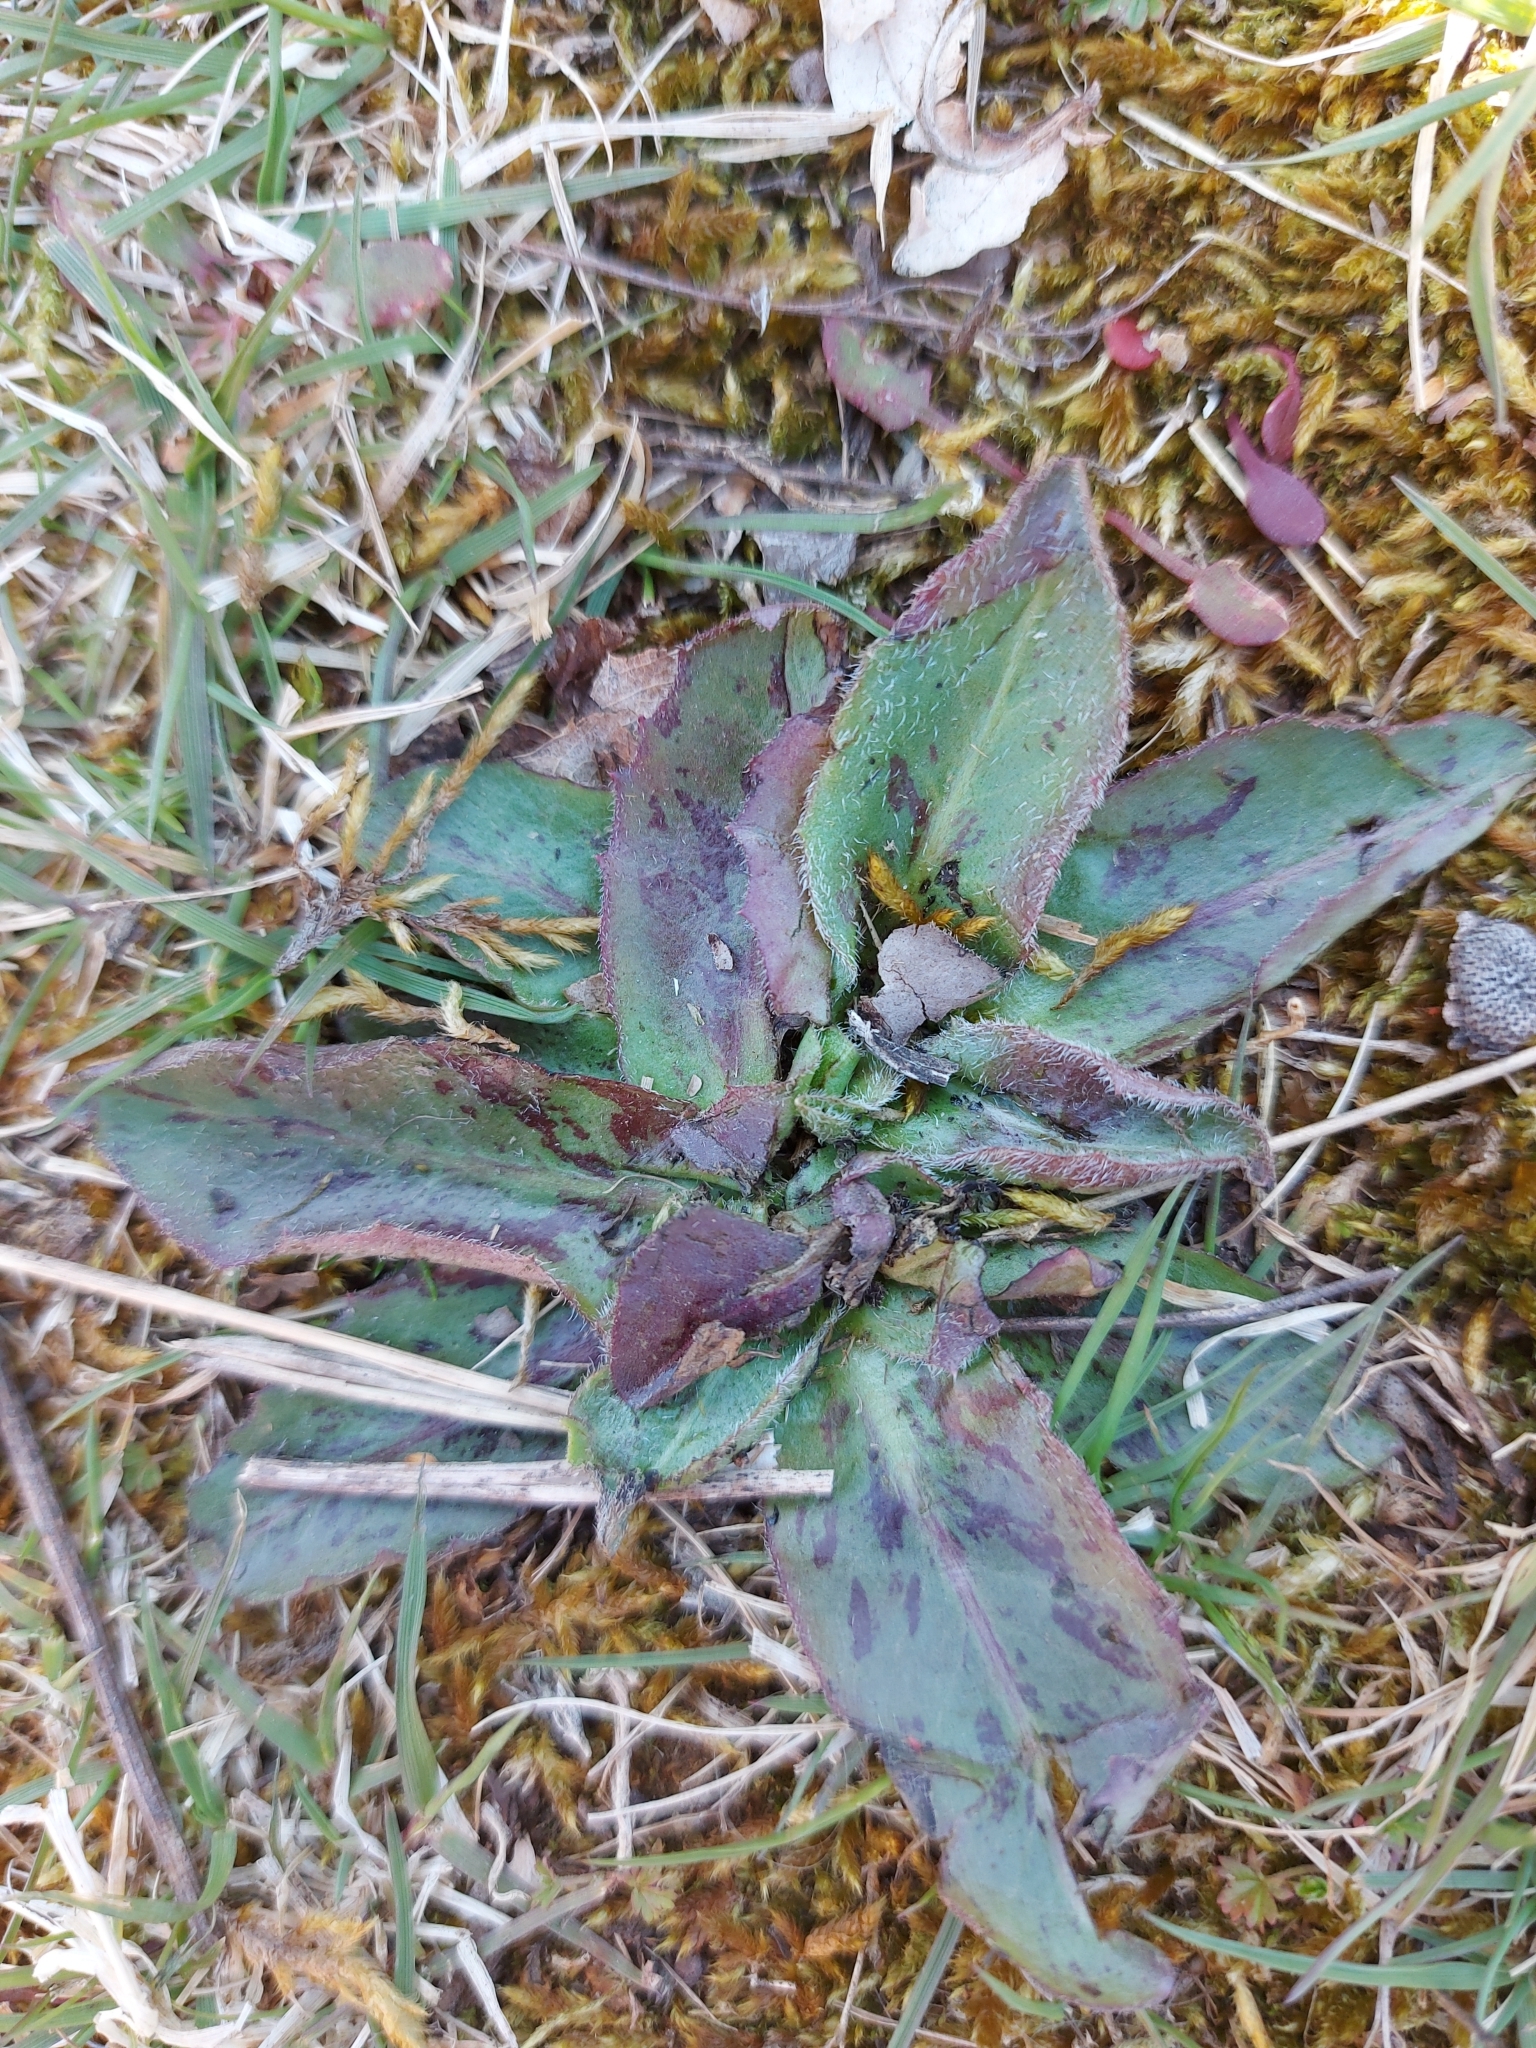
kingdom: Plantae
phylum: Tracheophyta
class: Magnoliopsida
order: Asterales
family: Asteraceae
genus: Trommsdorffia
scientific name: Trommsdorffia maculata
